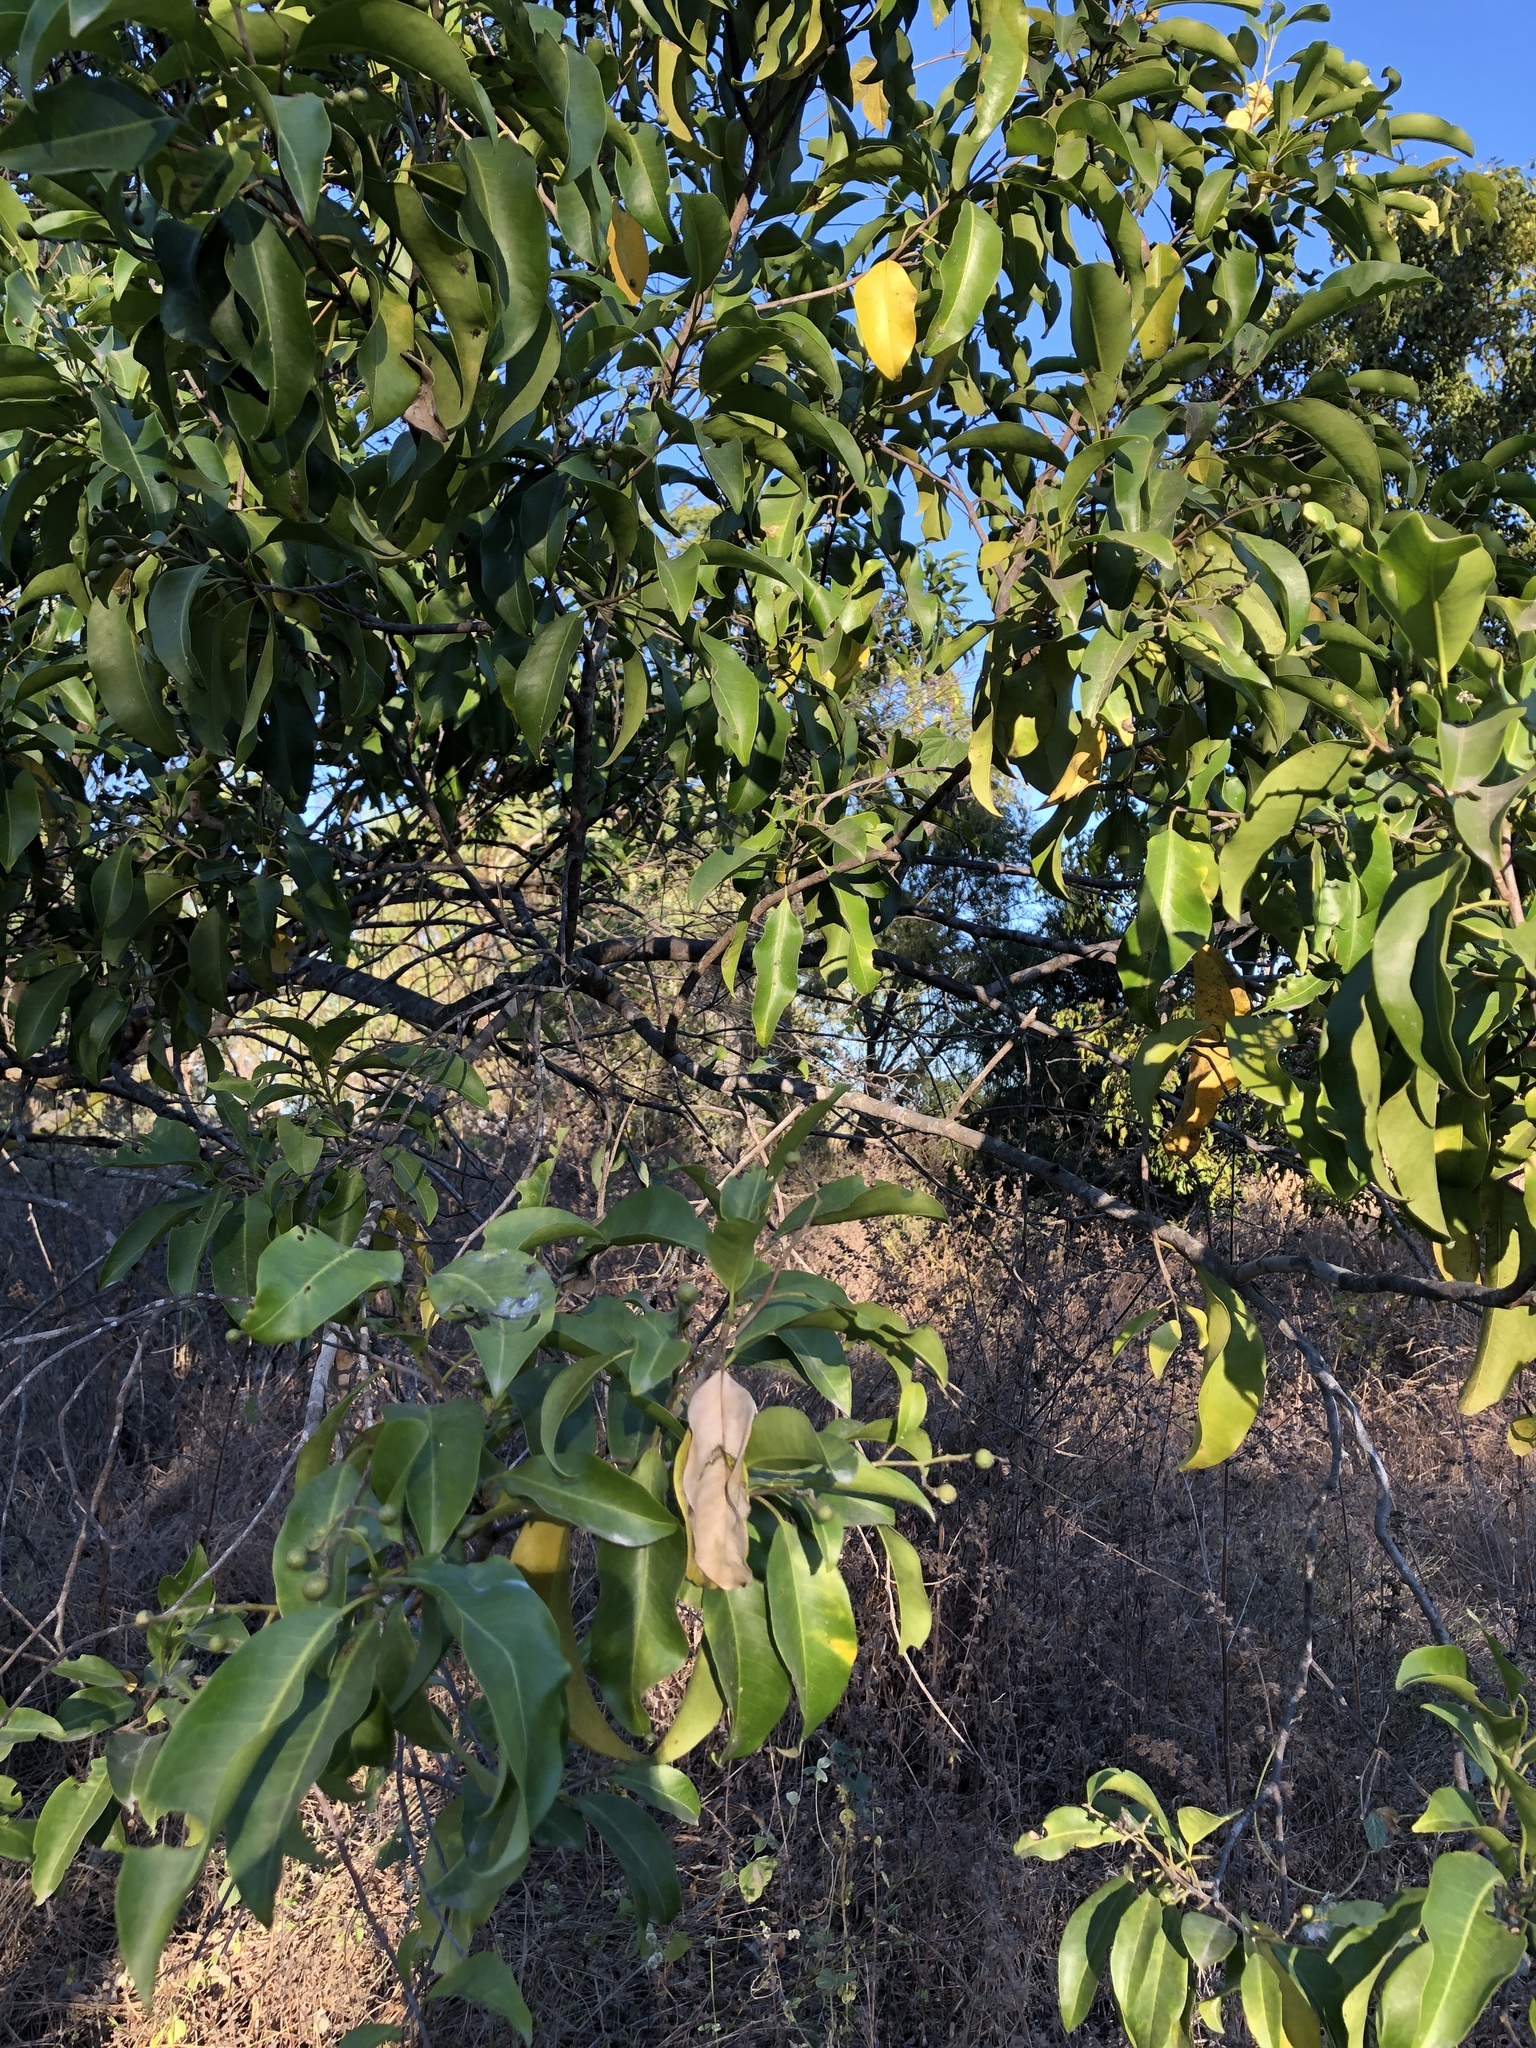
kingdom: Plantae
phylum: Tracheophyta
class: Magnoliopsida
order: Sapindales
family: Rutaceae
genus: Geijera
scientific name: Geijera salicifolia
